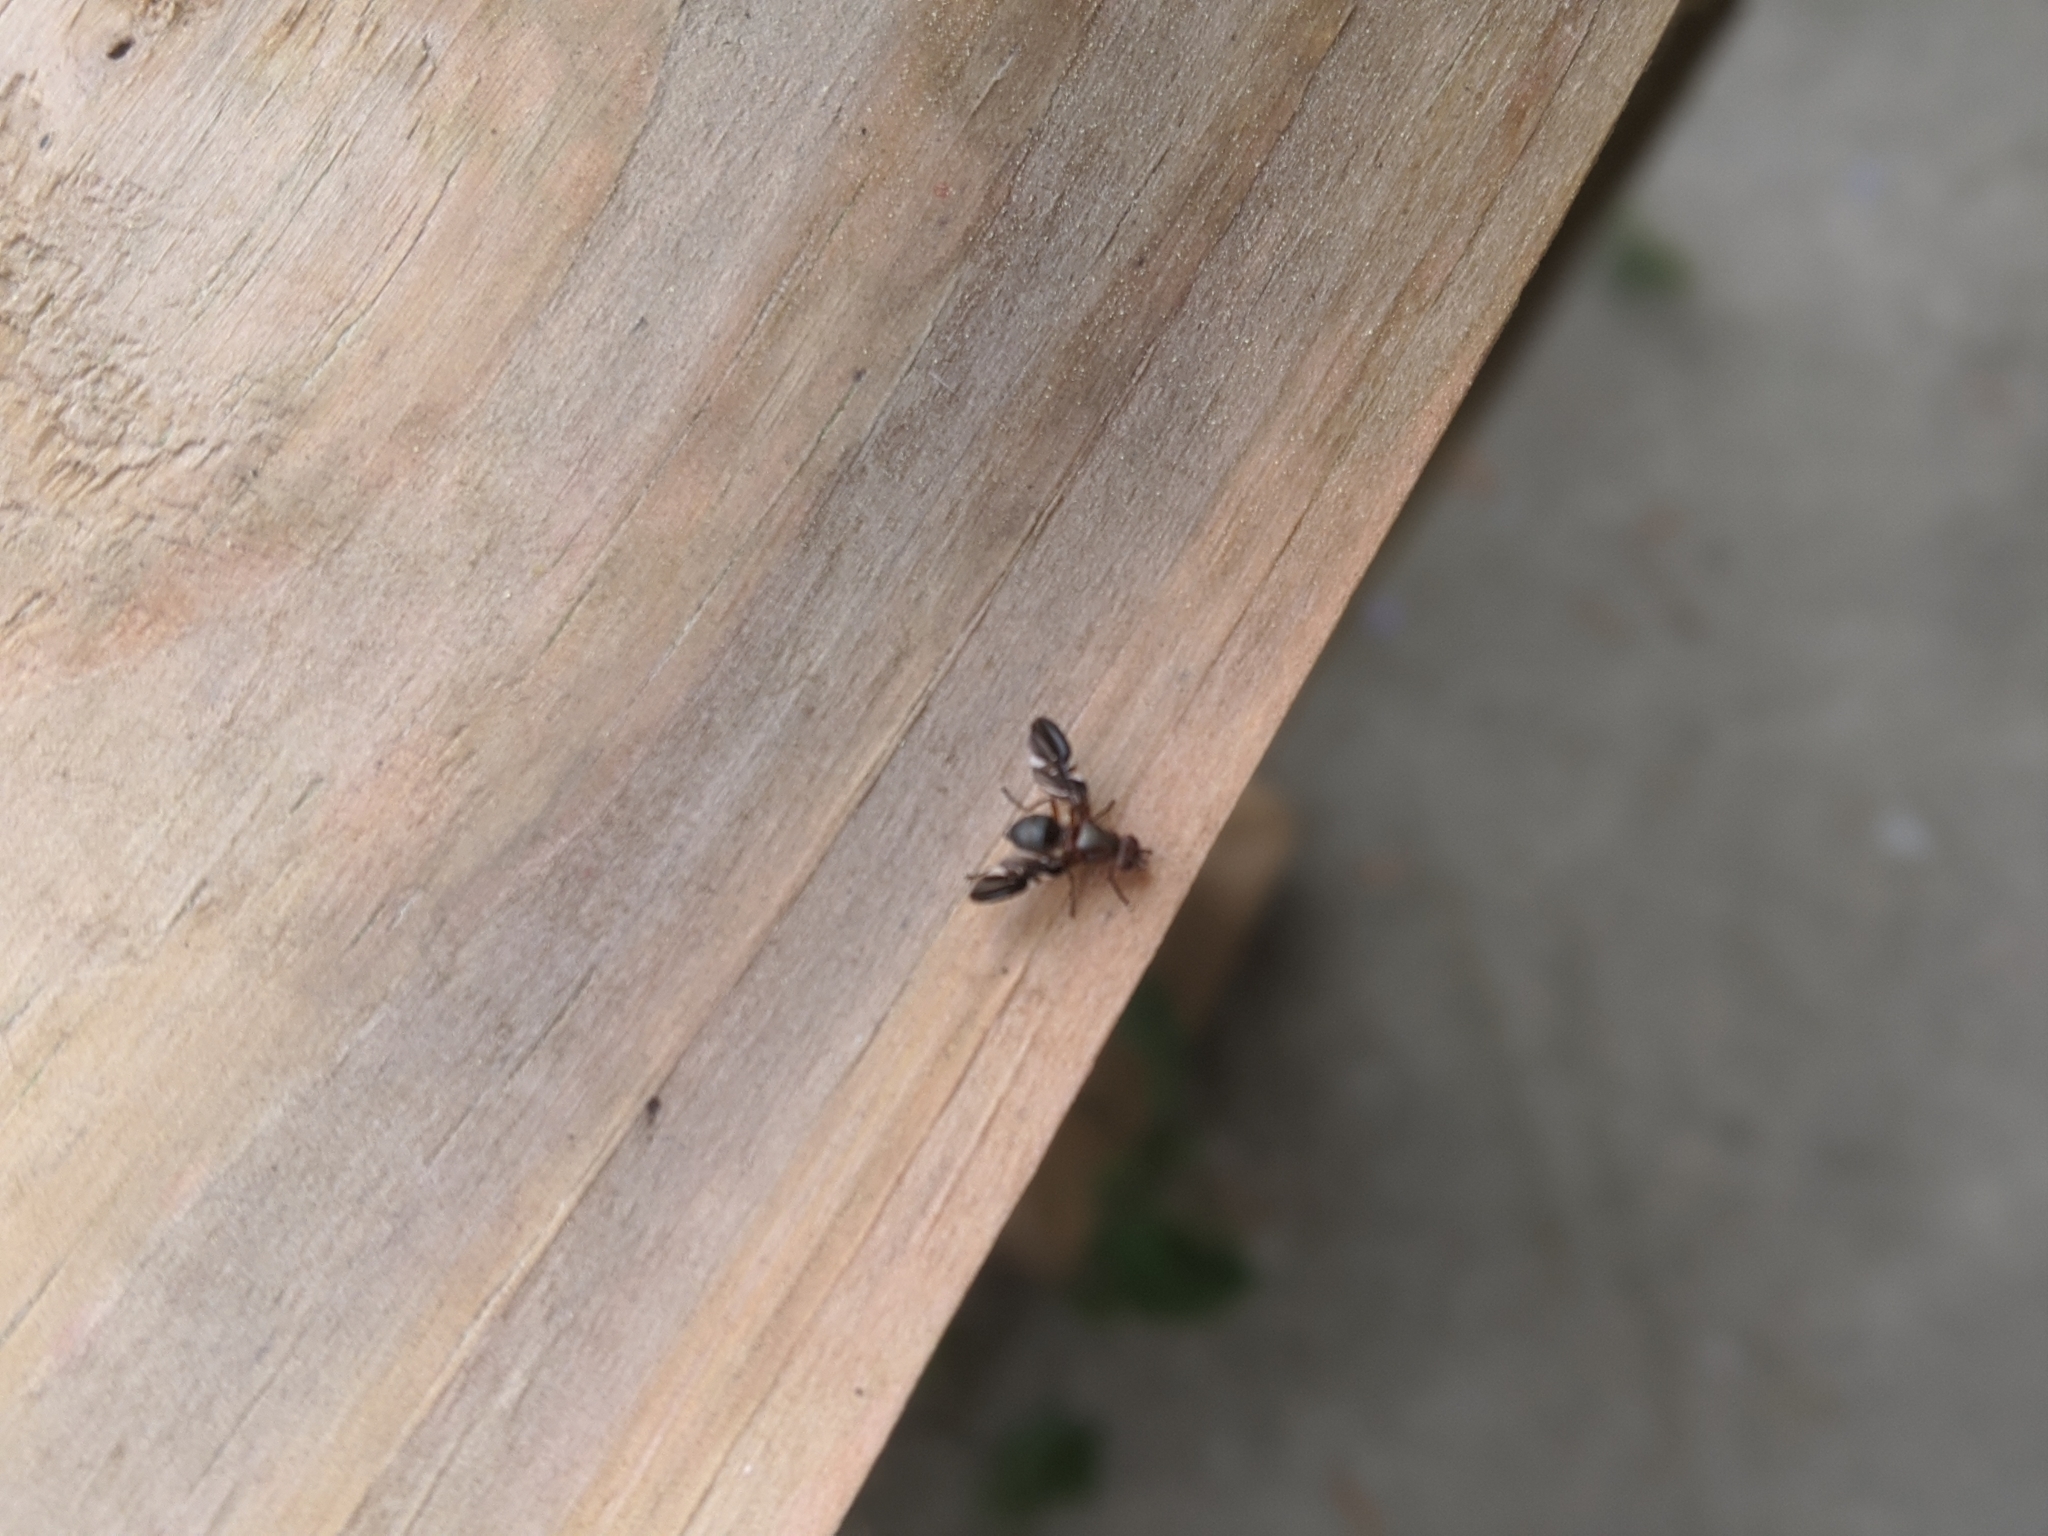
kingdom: Animalia
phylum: Arthropoda
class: Insecta
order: Diptera
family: Ulidiidae
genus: Delphinia
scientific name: Delphinia picta
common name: Common picture-winged fly
